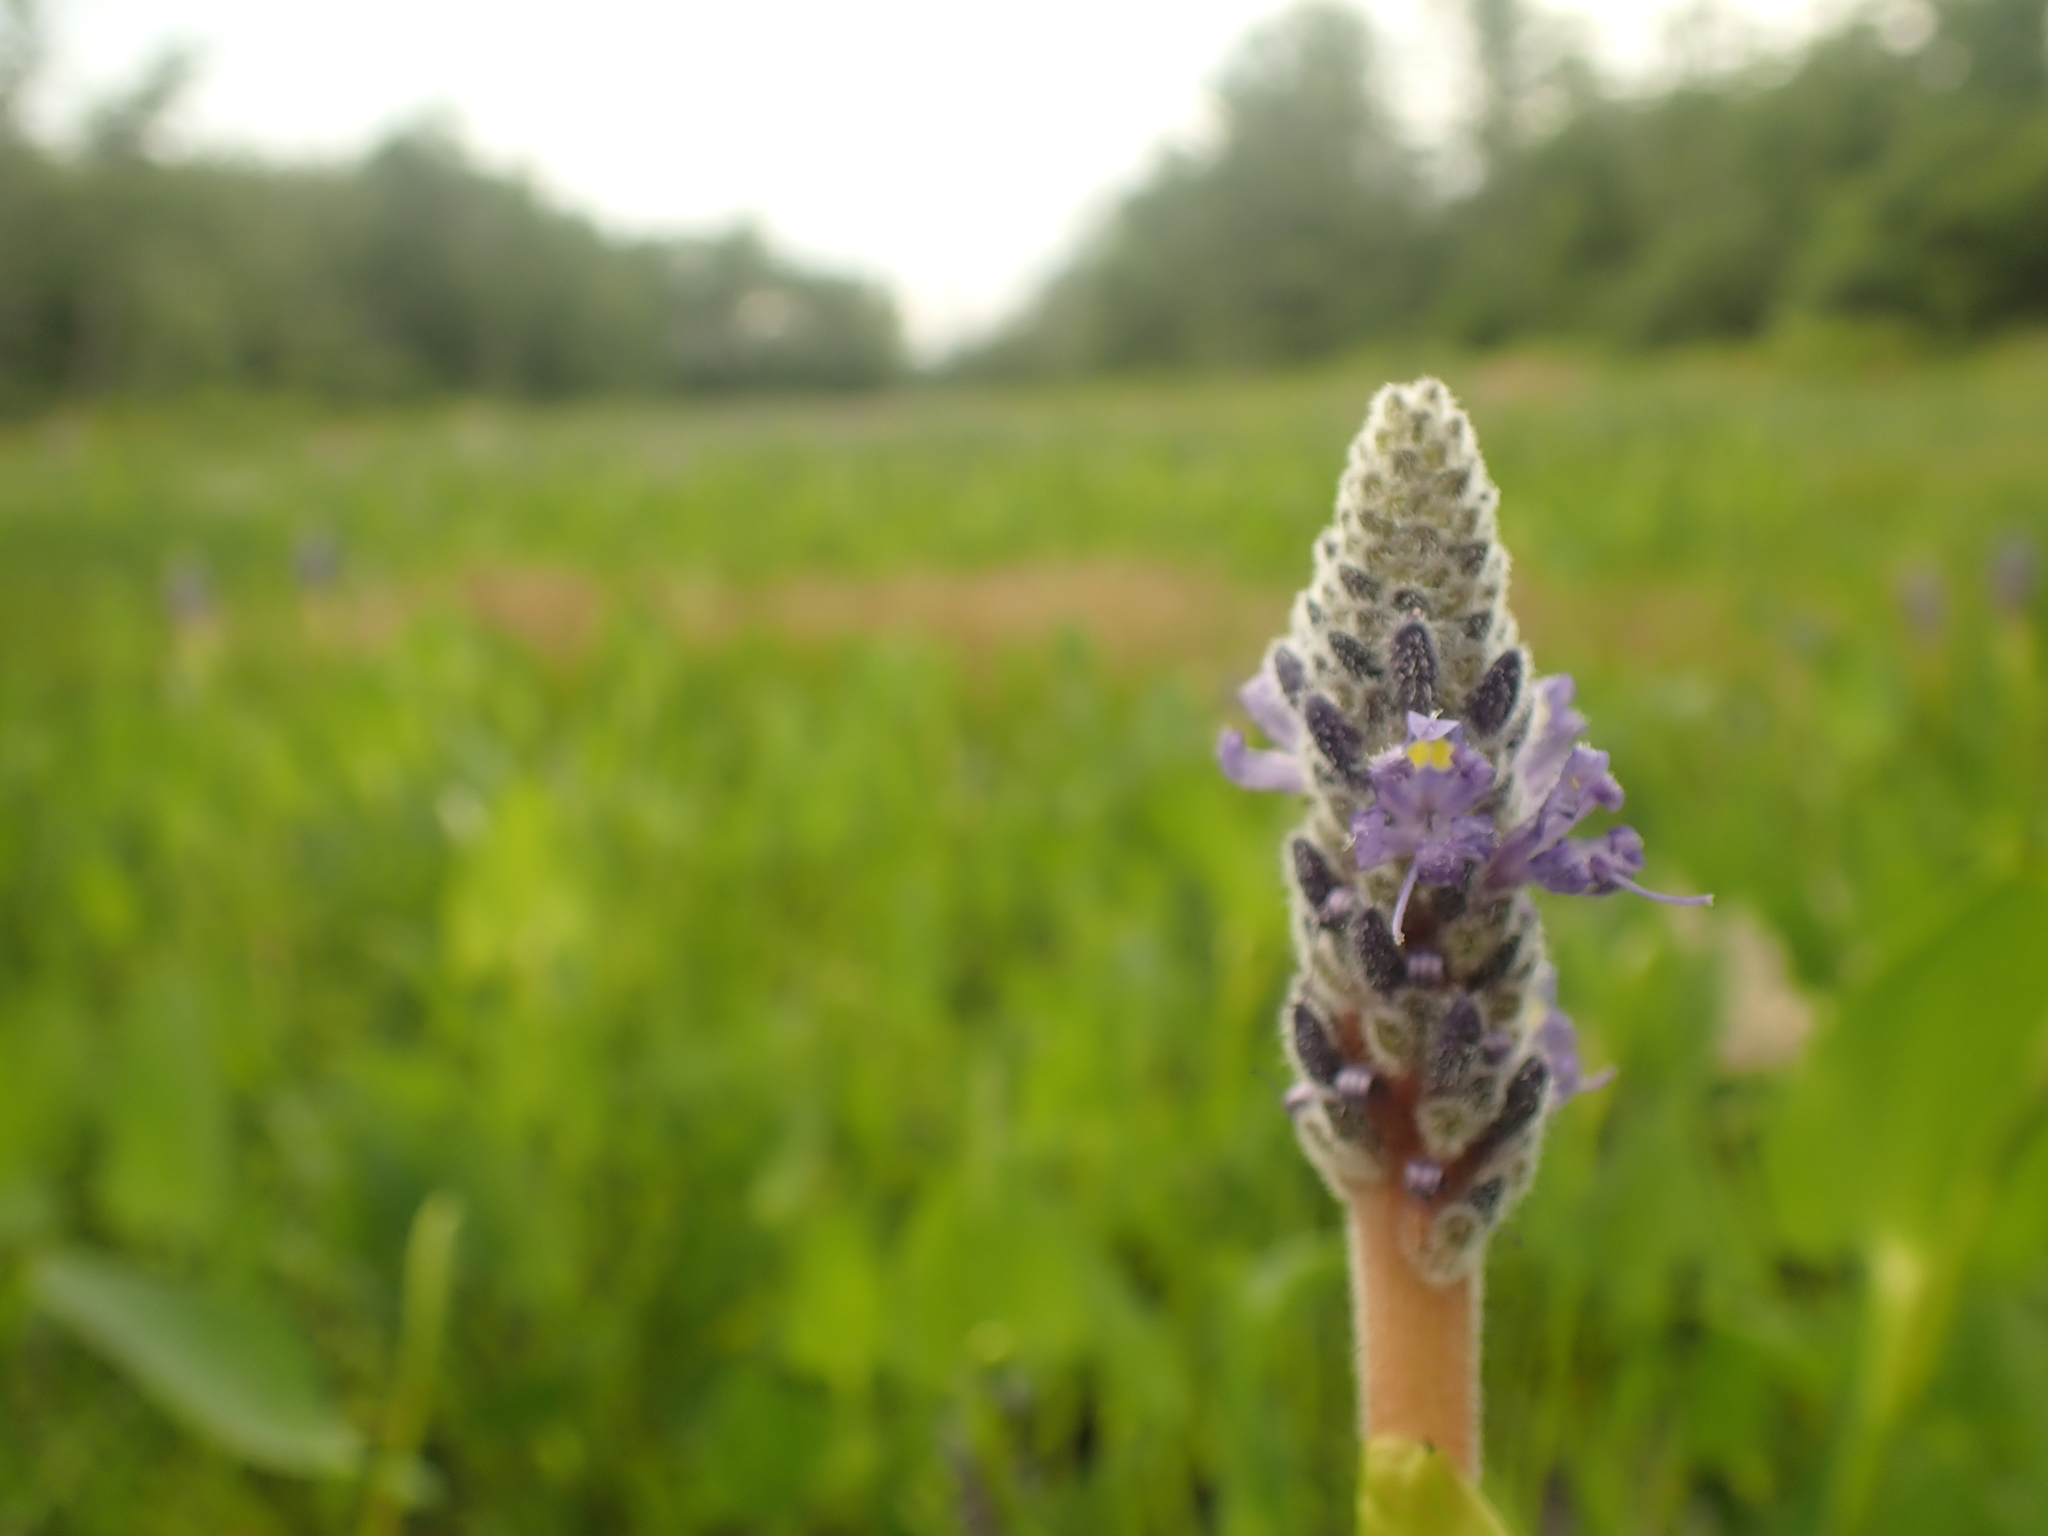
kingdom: Plantae
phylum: Tracheophyta
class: Liliopsida
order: Commelinales
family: Pontederiaceae
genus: Pontederia
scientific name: Pontederia cordata
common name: Pickerelweed
